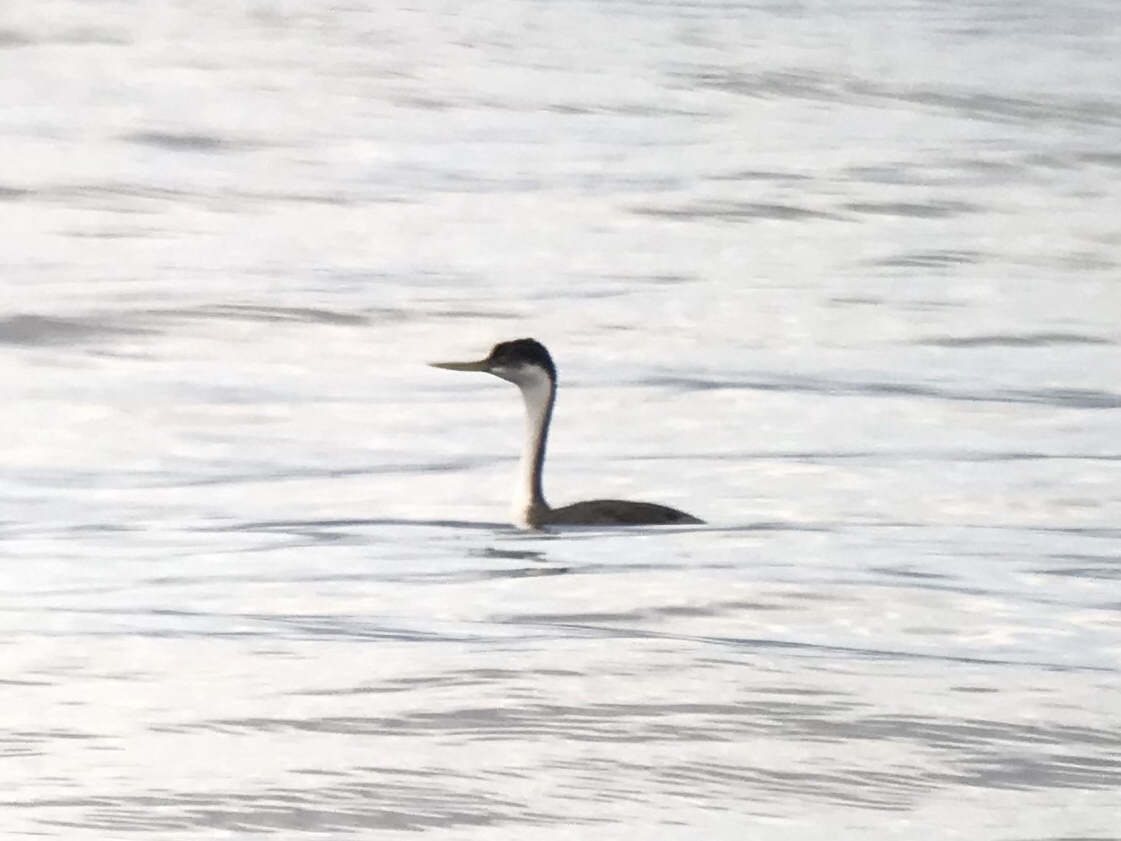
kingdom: Animalia
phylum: Chordata
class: Aves
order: Podicipediformes
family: Podicipedidae
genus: Aechmophorus
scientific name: Aechmophorus occidentalis
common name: Western grebe
